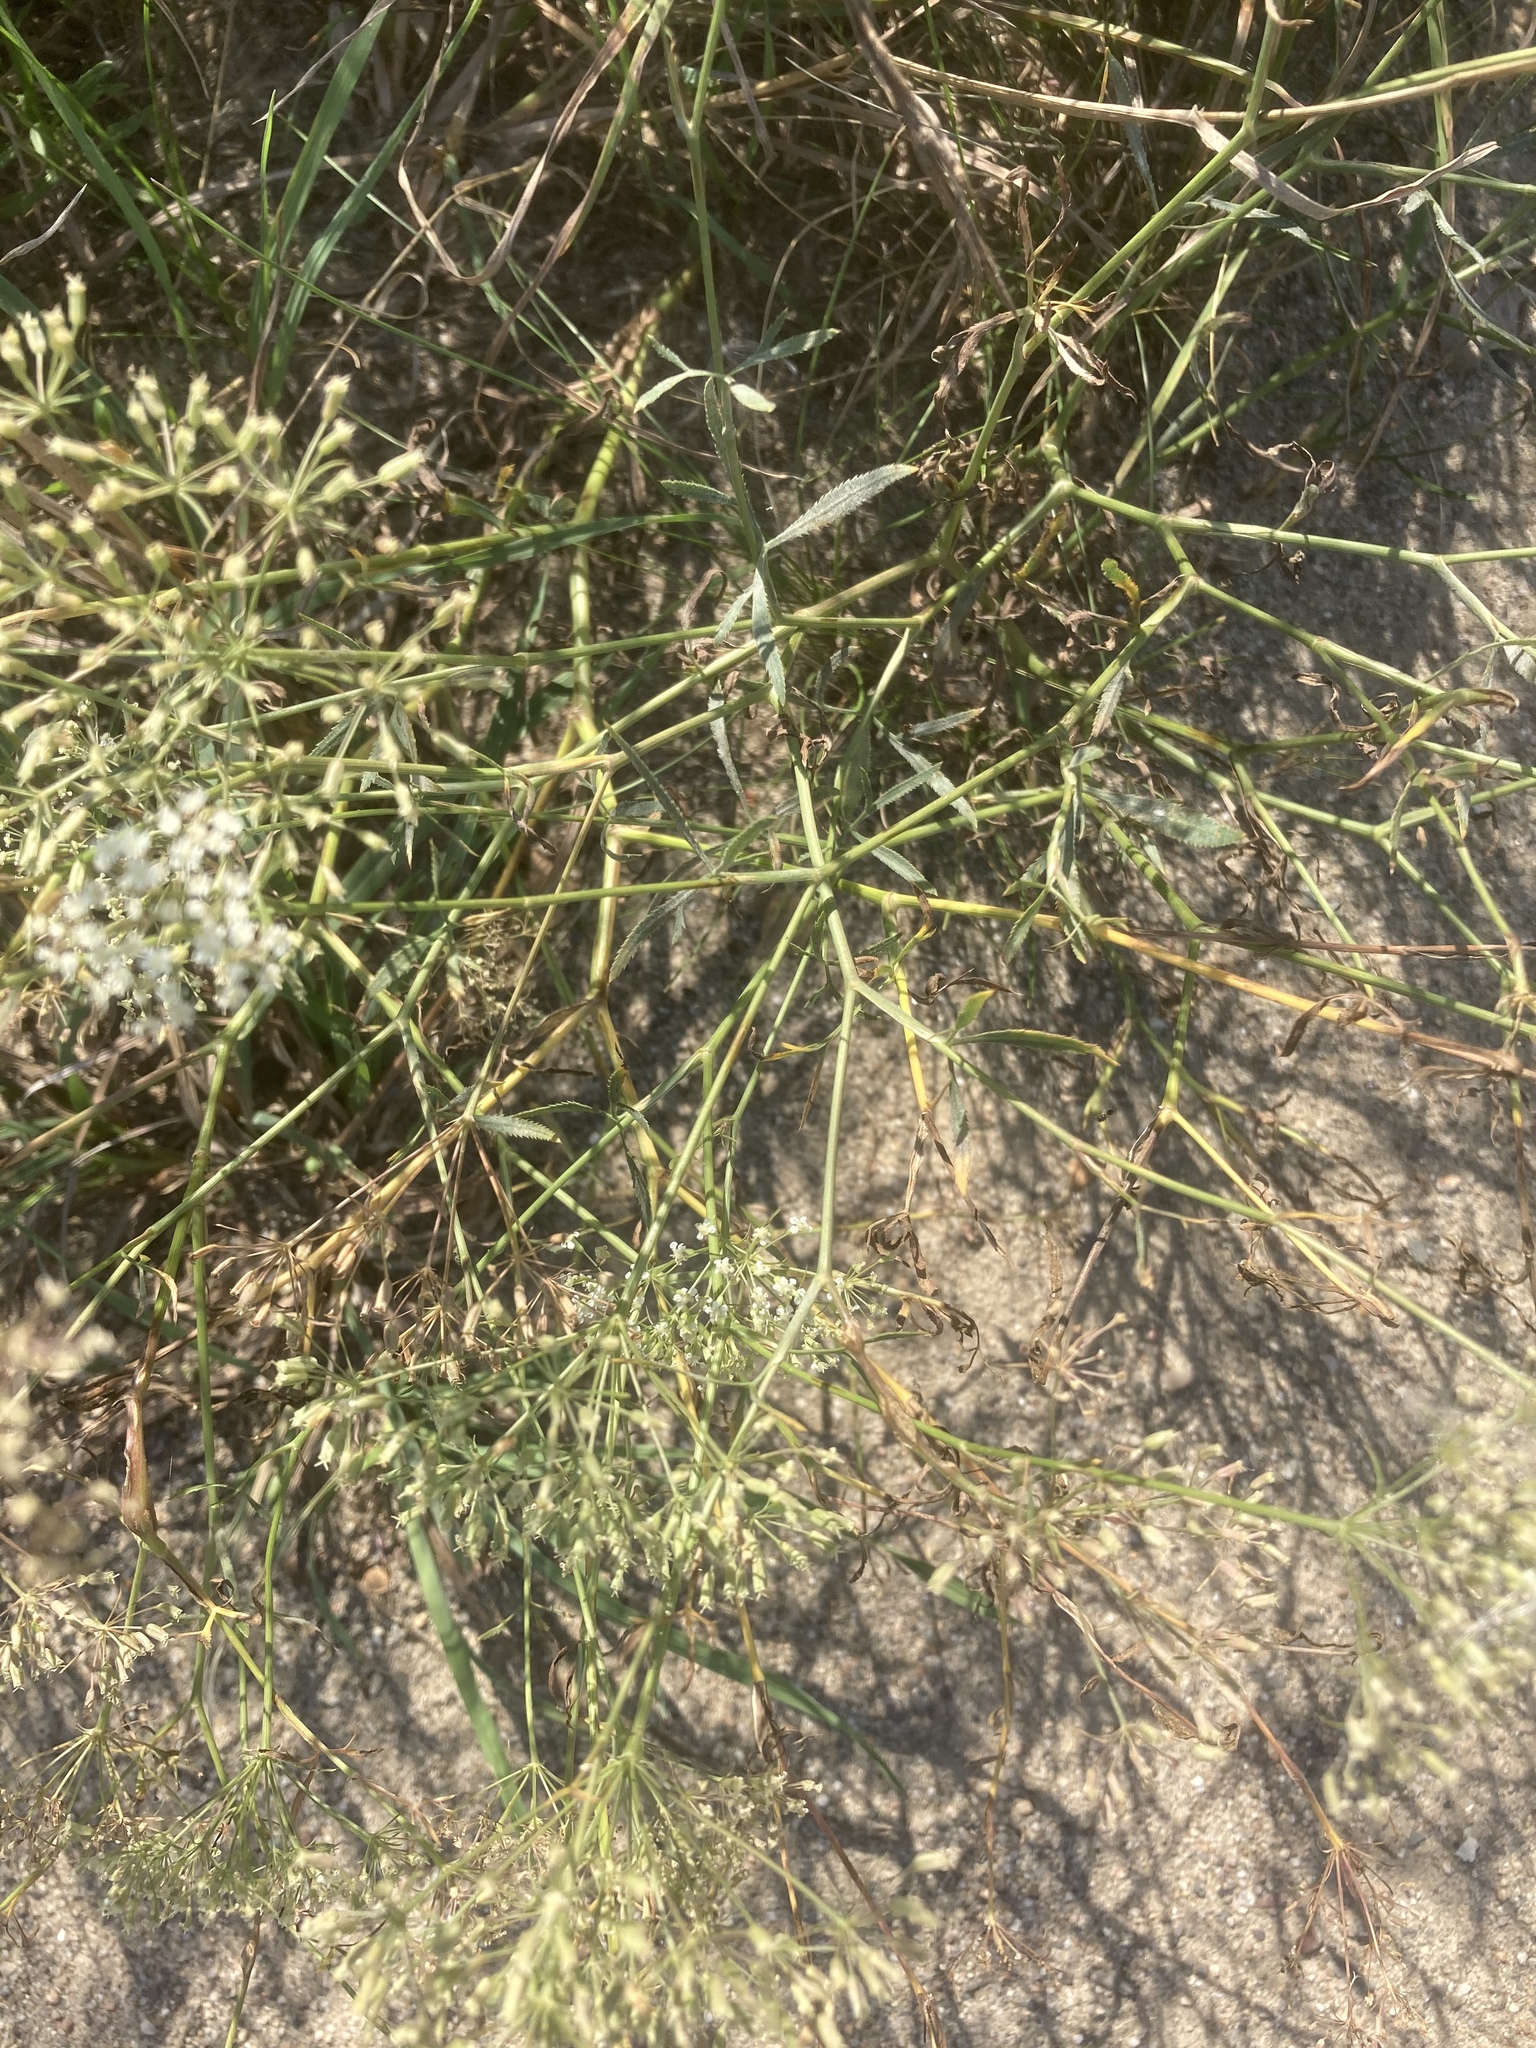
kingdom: Plantae
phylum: Tracheophyta
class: Magnoliopsida
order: Apiales
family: Apiaceae
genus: Falcaria
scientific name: Falcaria vulgaris
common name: Longleaf
